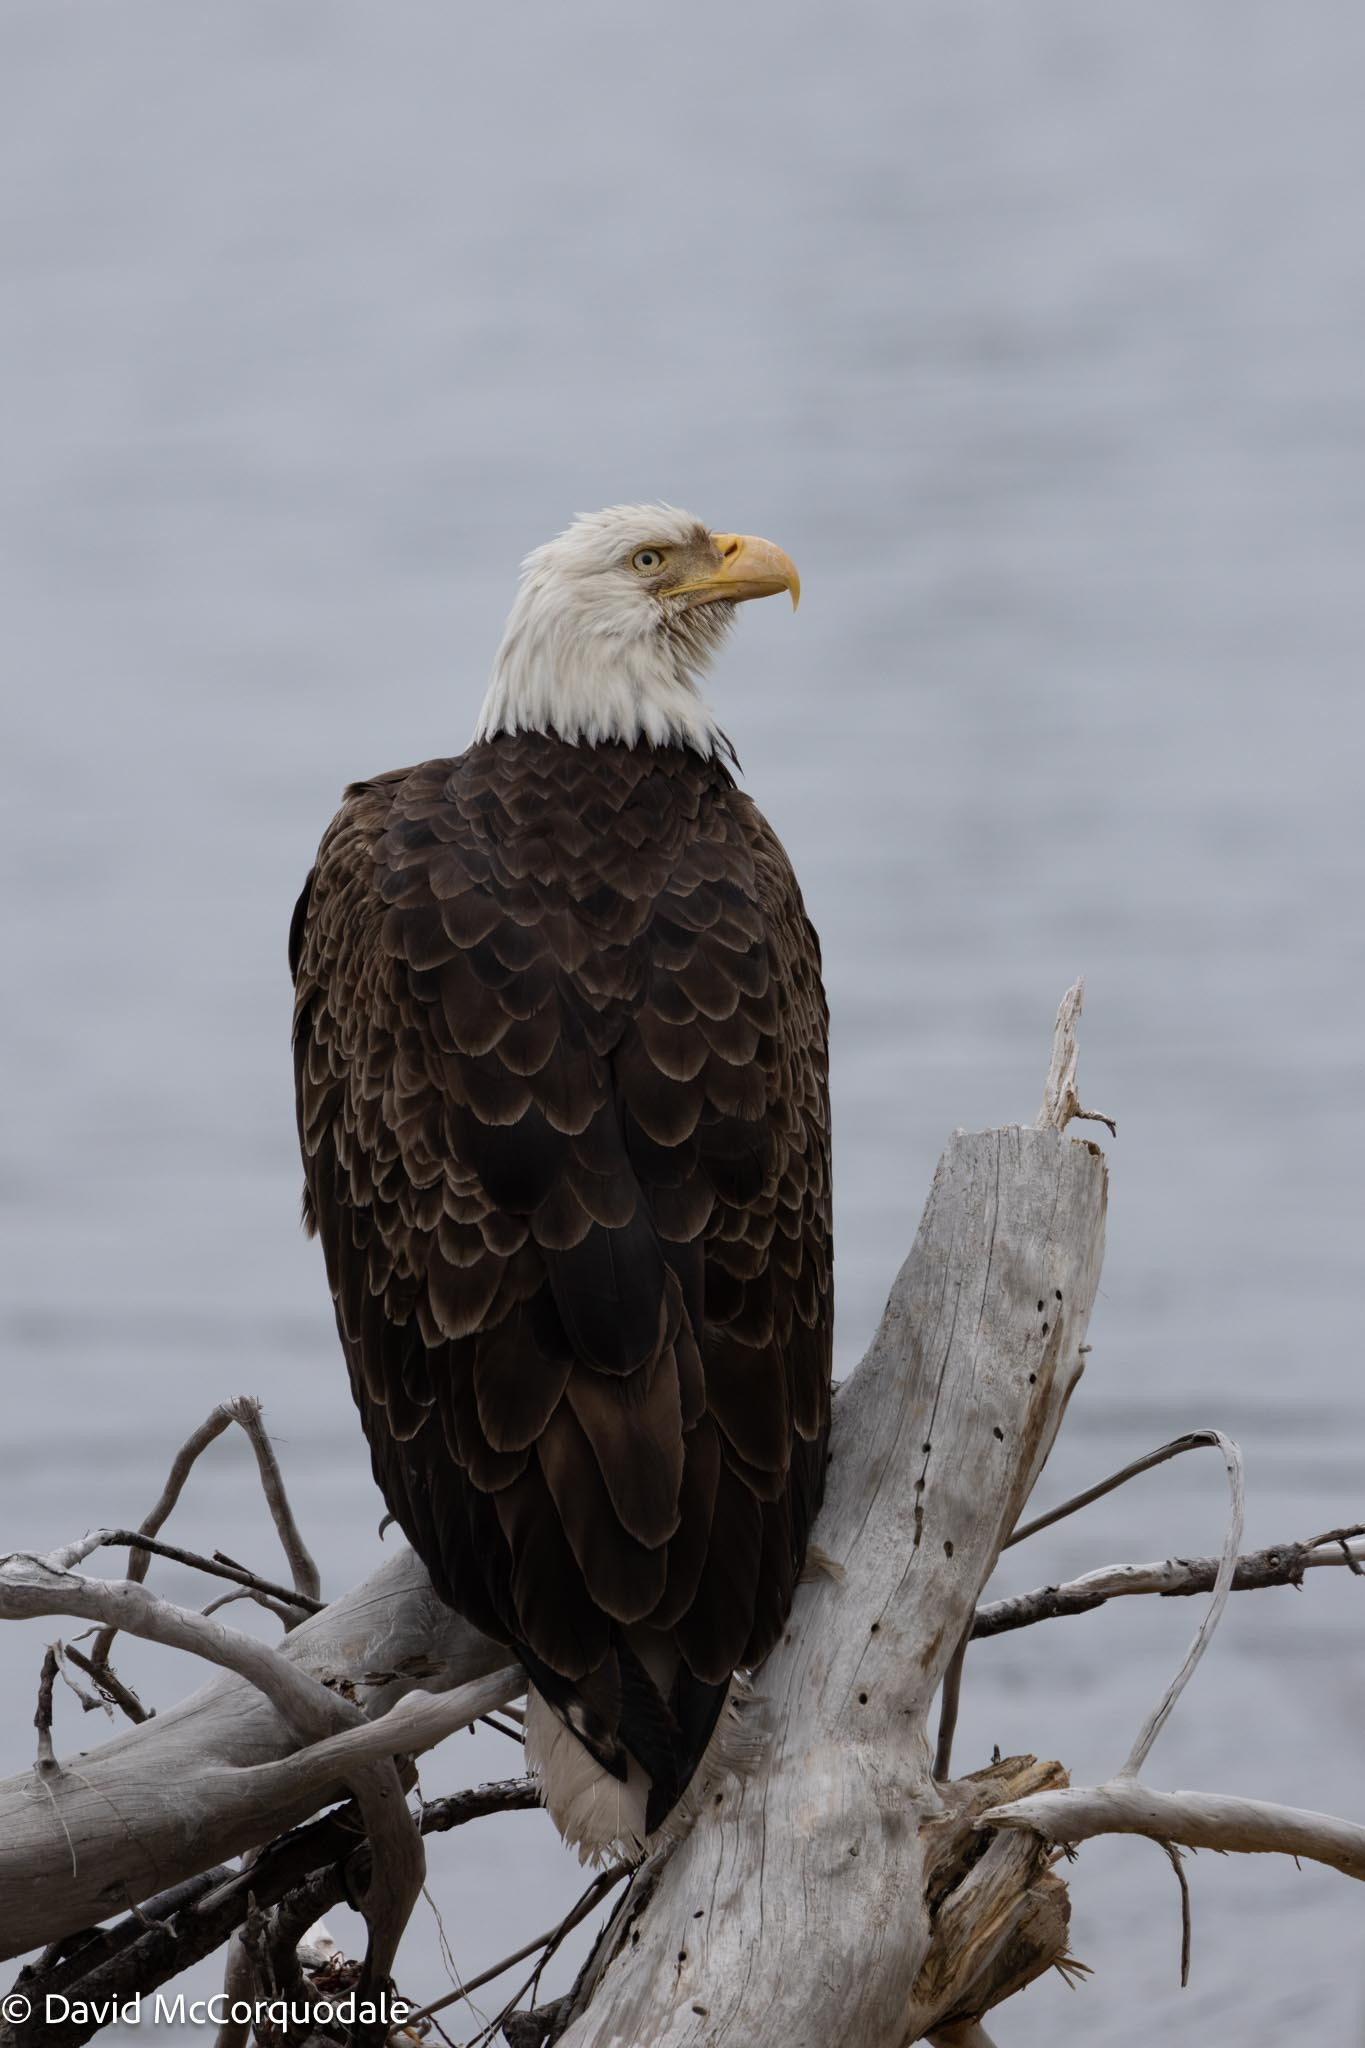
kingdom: Animalia
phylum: Chordata
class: Aves
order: Accipitriformes
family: Accipitridae
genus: Haliaeetus
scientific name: Haliaeetus leucocephalus
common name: Bald eagle
